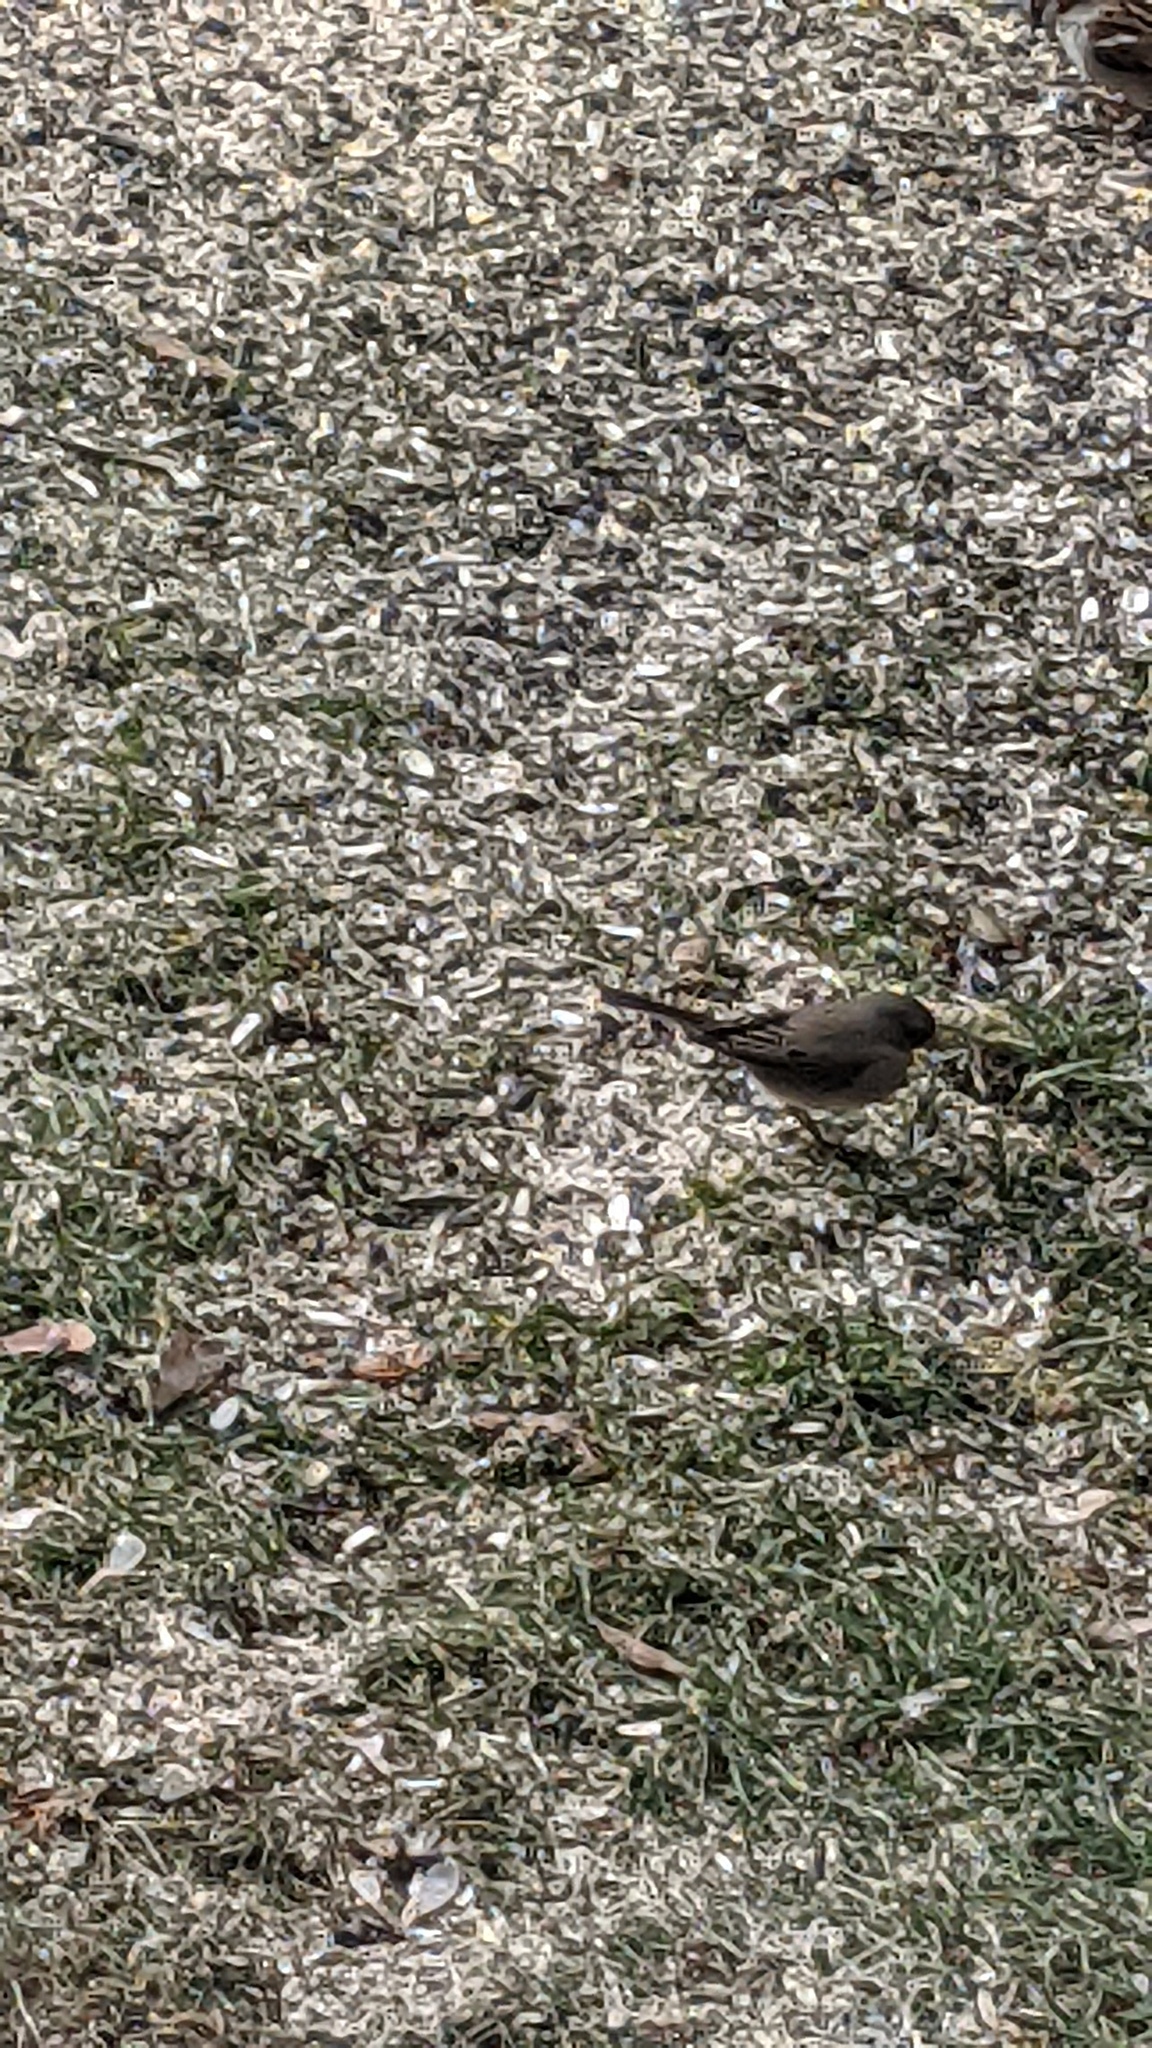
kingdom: Animalia
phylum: Chordata
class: Aves
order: Passeriformes
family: Passerellidae
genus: Junco
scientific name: Junco hyemalis
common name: Dark-eyed junco
